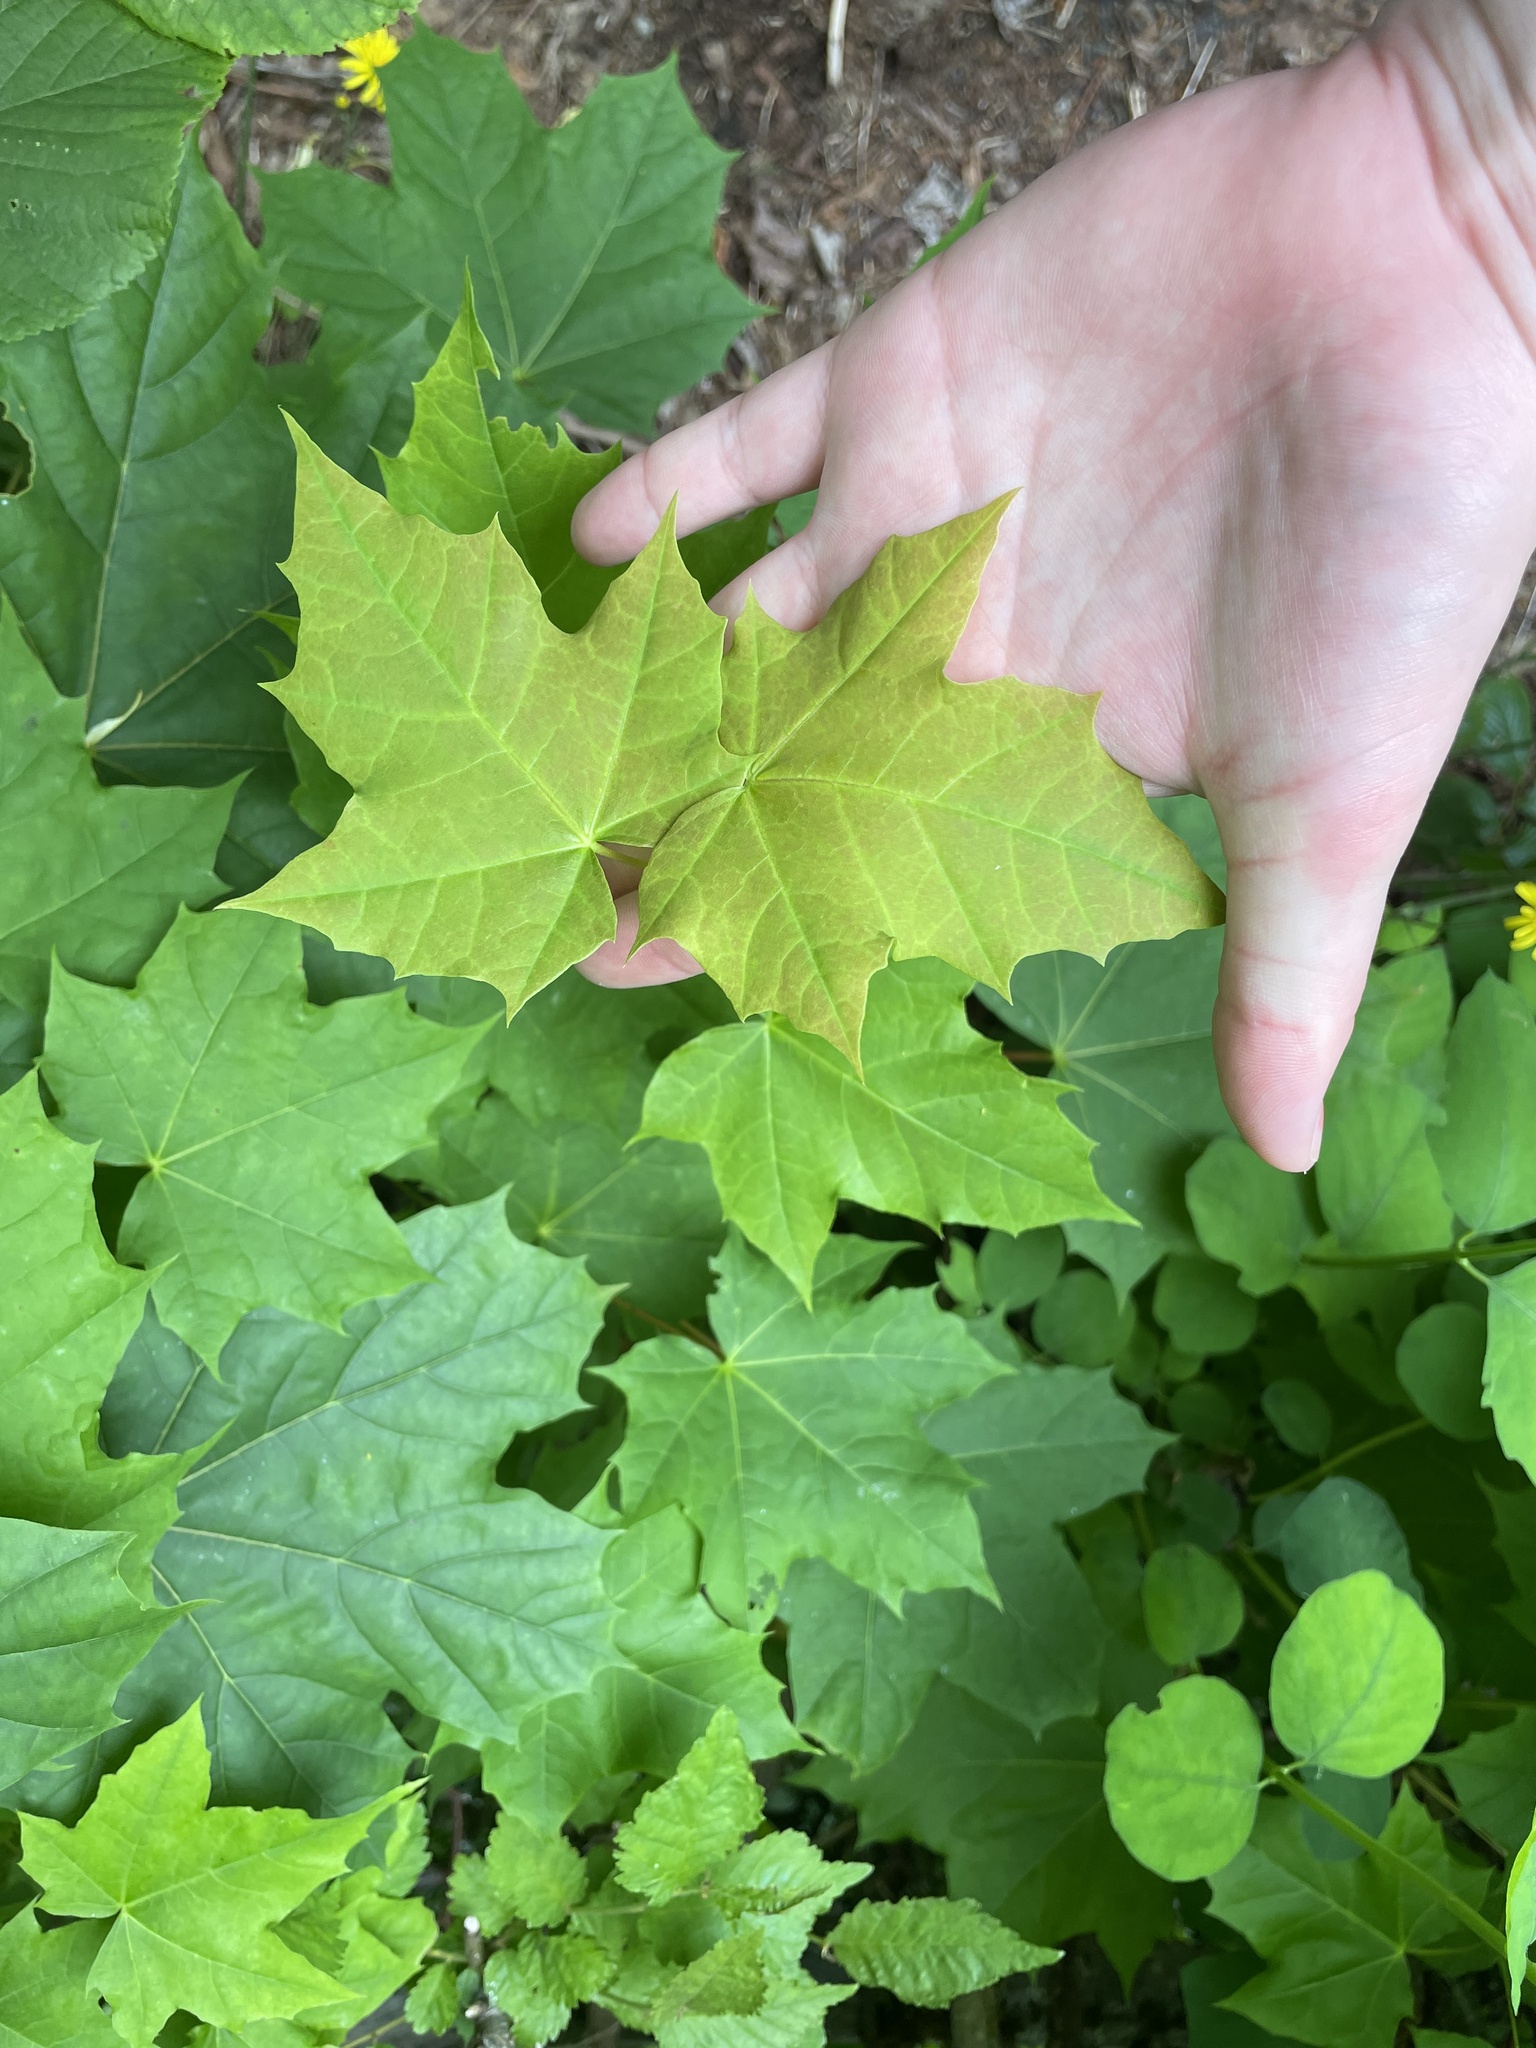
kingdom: Plantae
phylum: Tracheophyta
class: Magnoliopsida
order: Sapindales
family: Sapindaceae
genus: Acer
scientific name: Acer platanoides
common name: Norway maple
